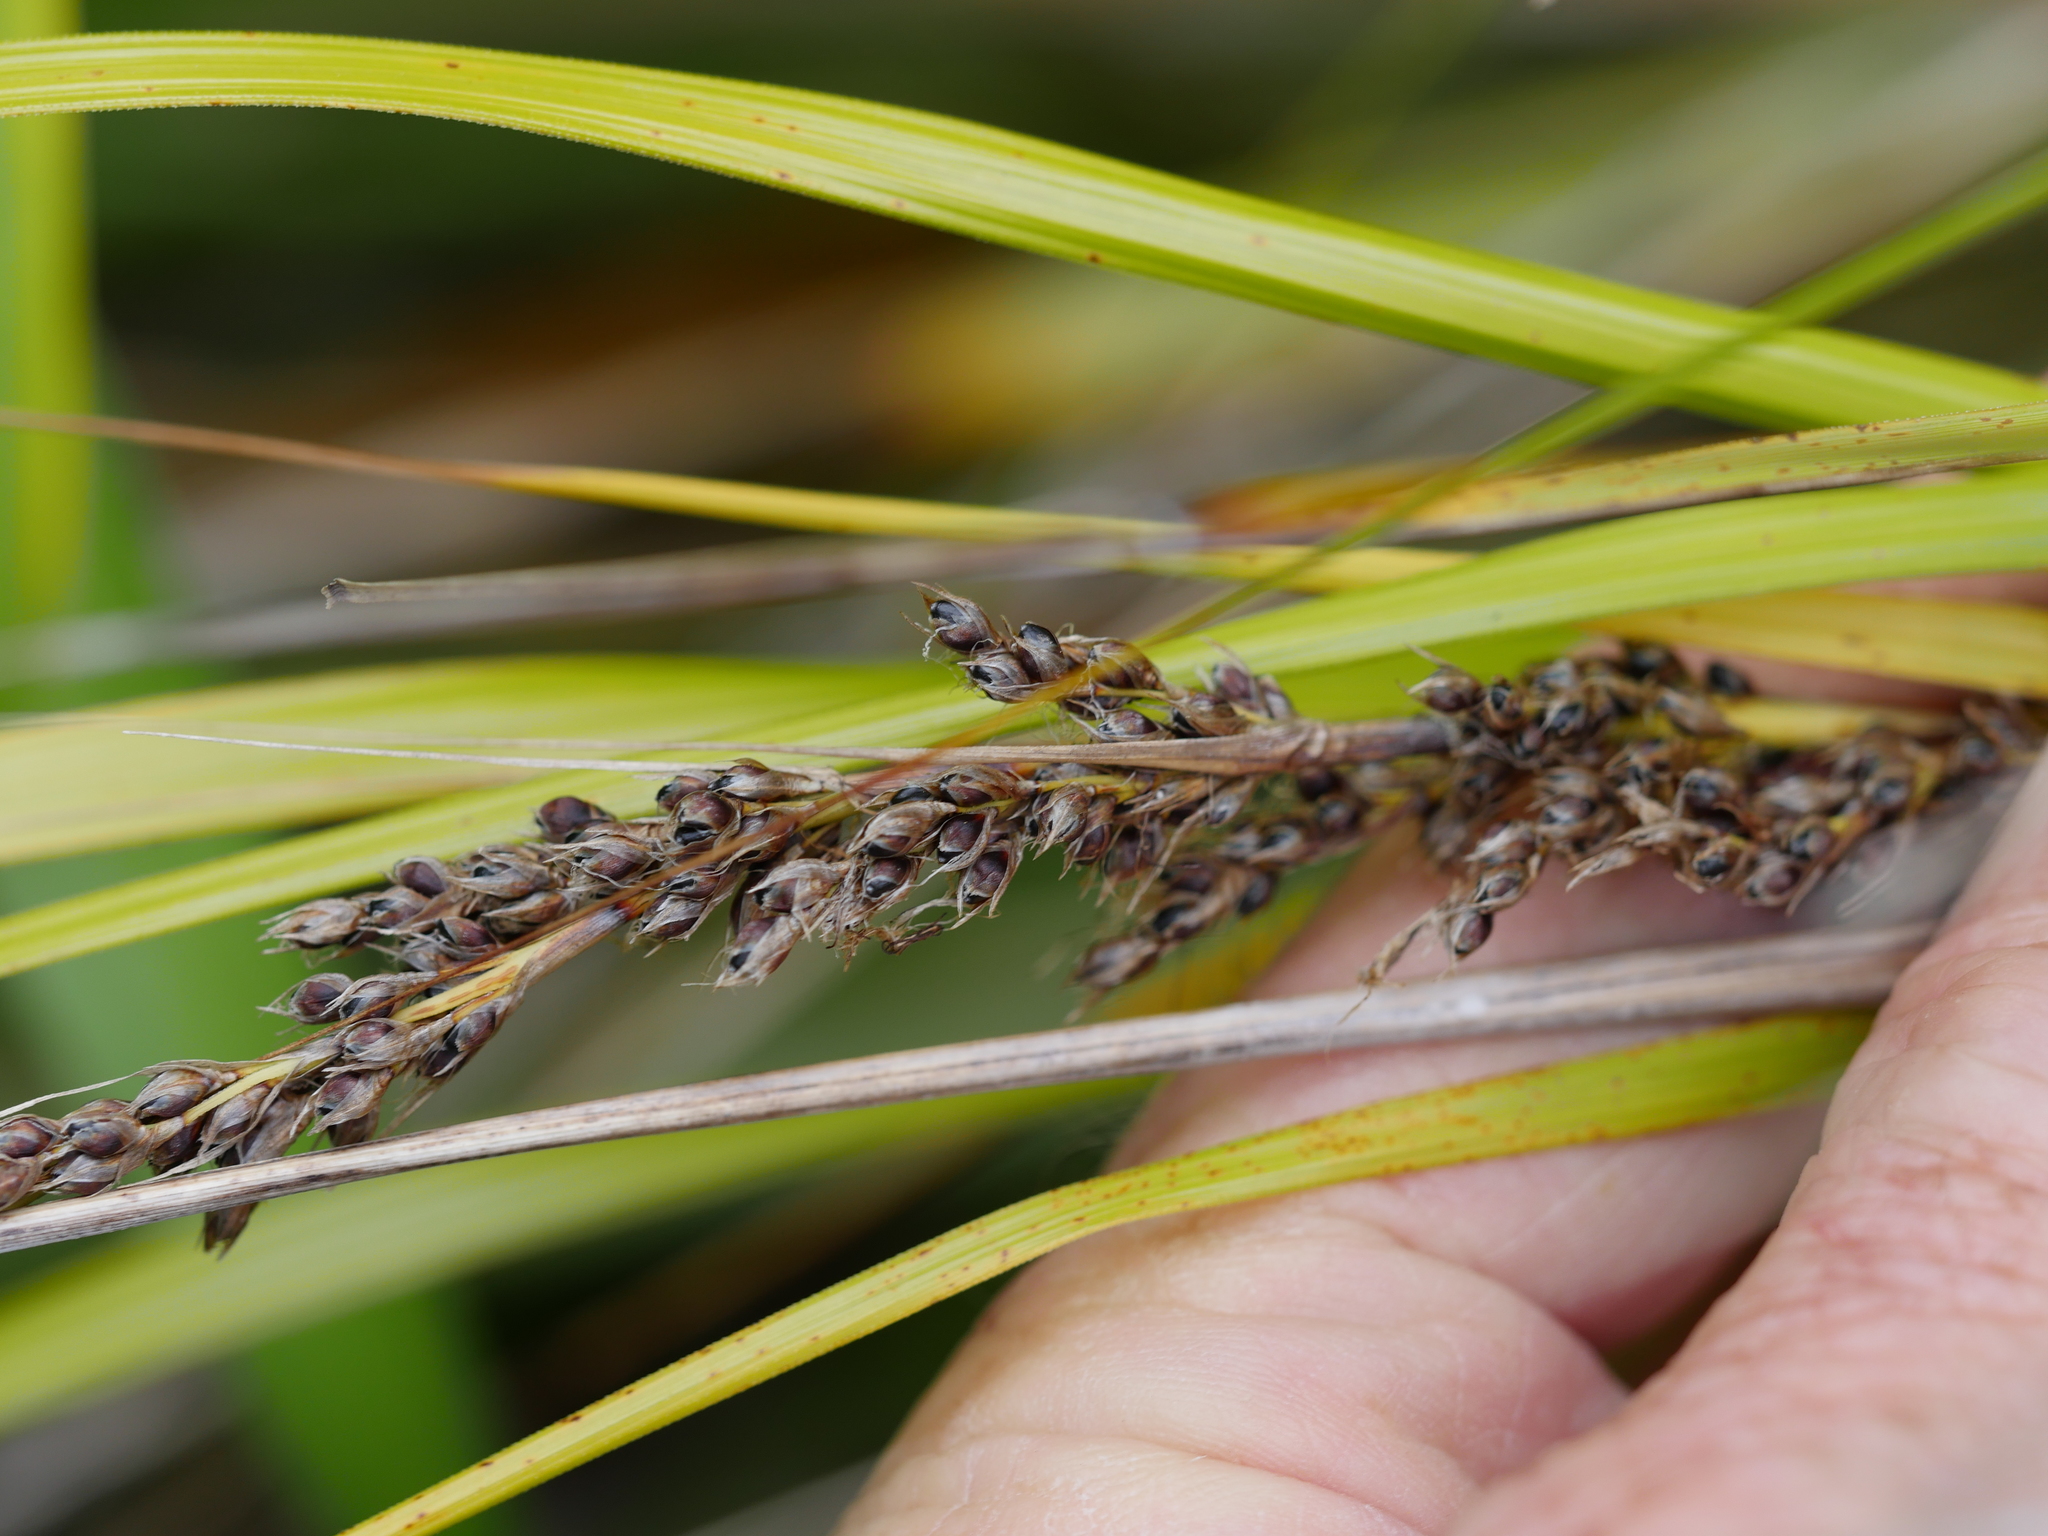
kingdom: Plantae
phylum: Tracheophyta
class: Liliopsida
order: Poales
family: Cyperaceae
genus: Gahnia
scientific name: Gahnia lacera
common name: Sawsedge
